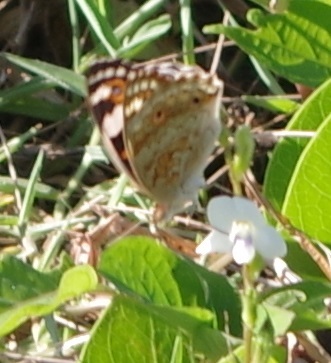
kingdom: Animalia
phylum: Arthropoda
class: Insecta
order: Lepidoptera
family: Nymphalidae
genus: Junonia
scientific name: Junonia orithya
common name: Blue pansy
